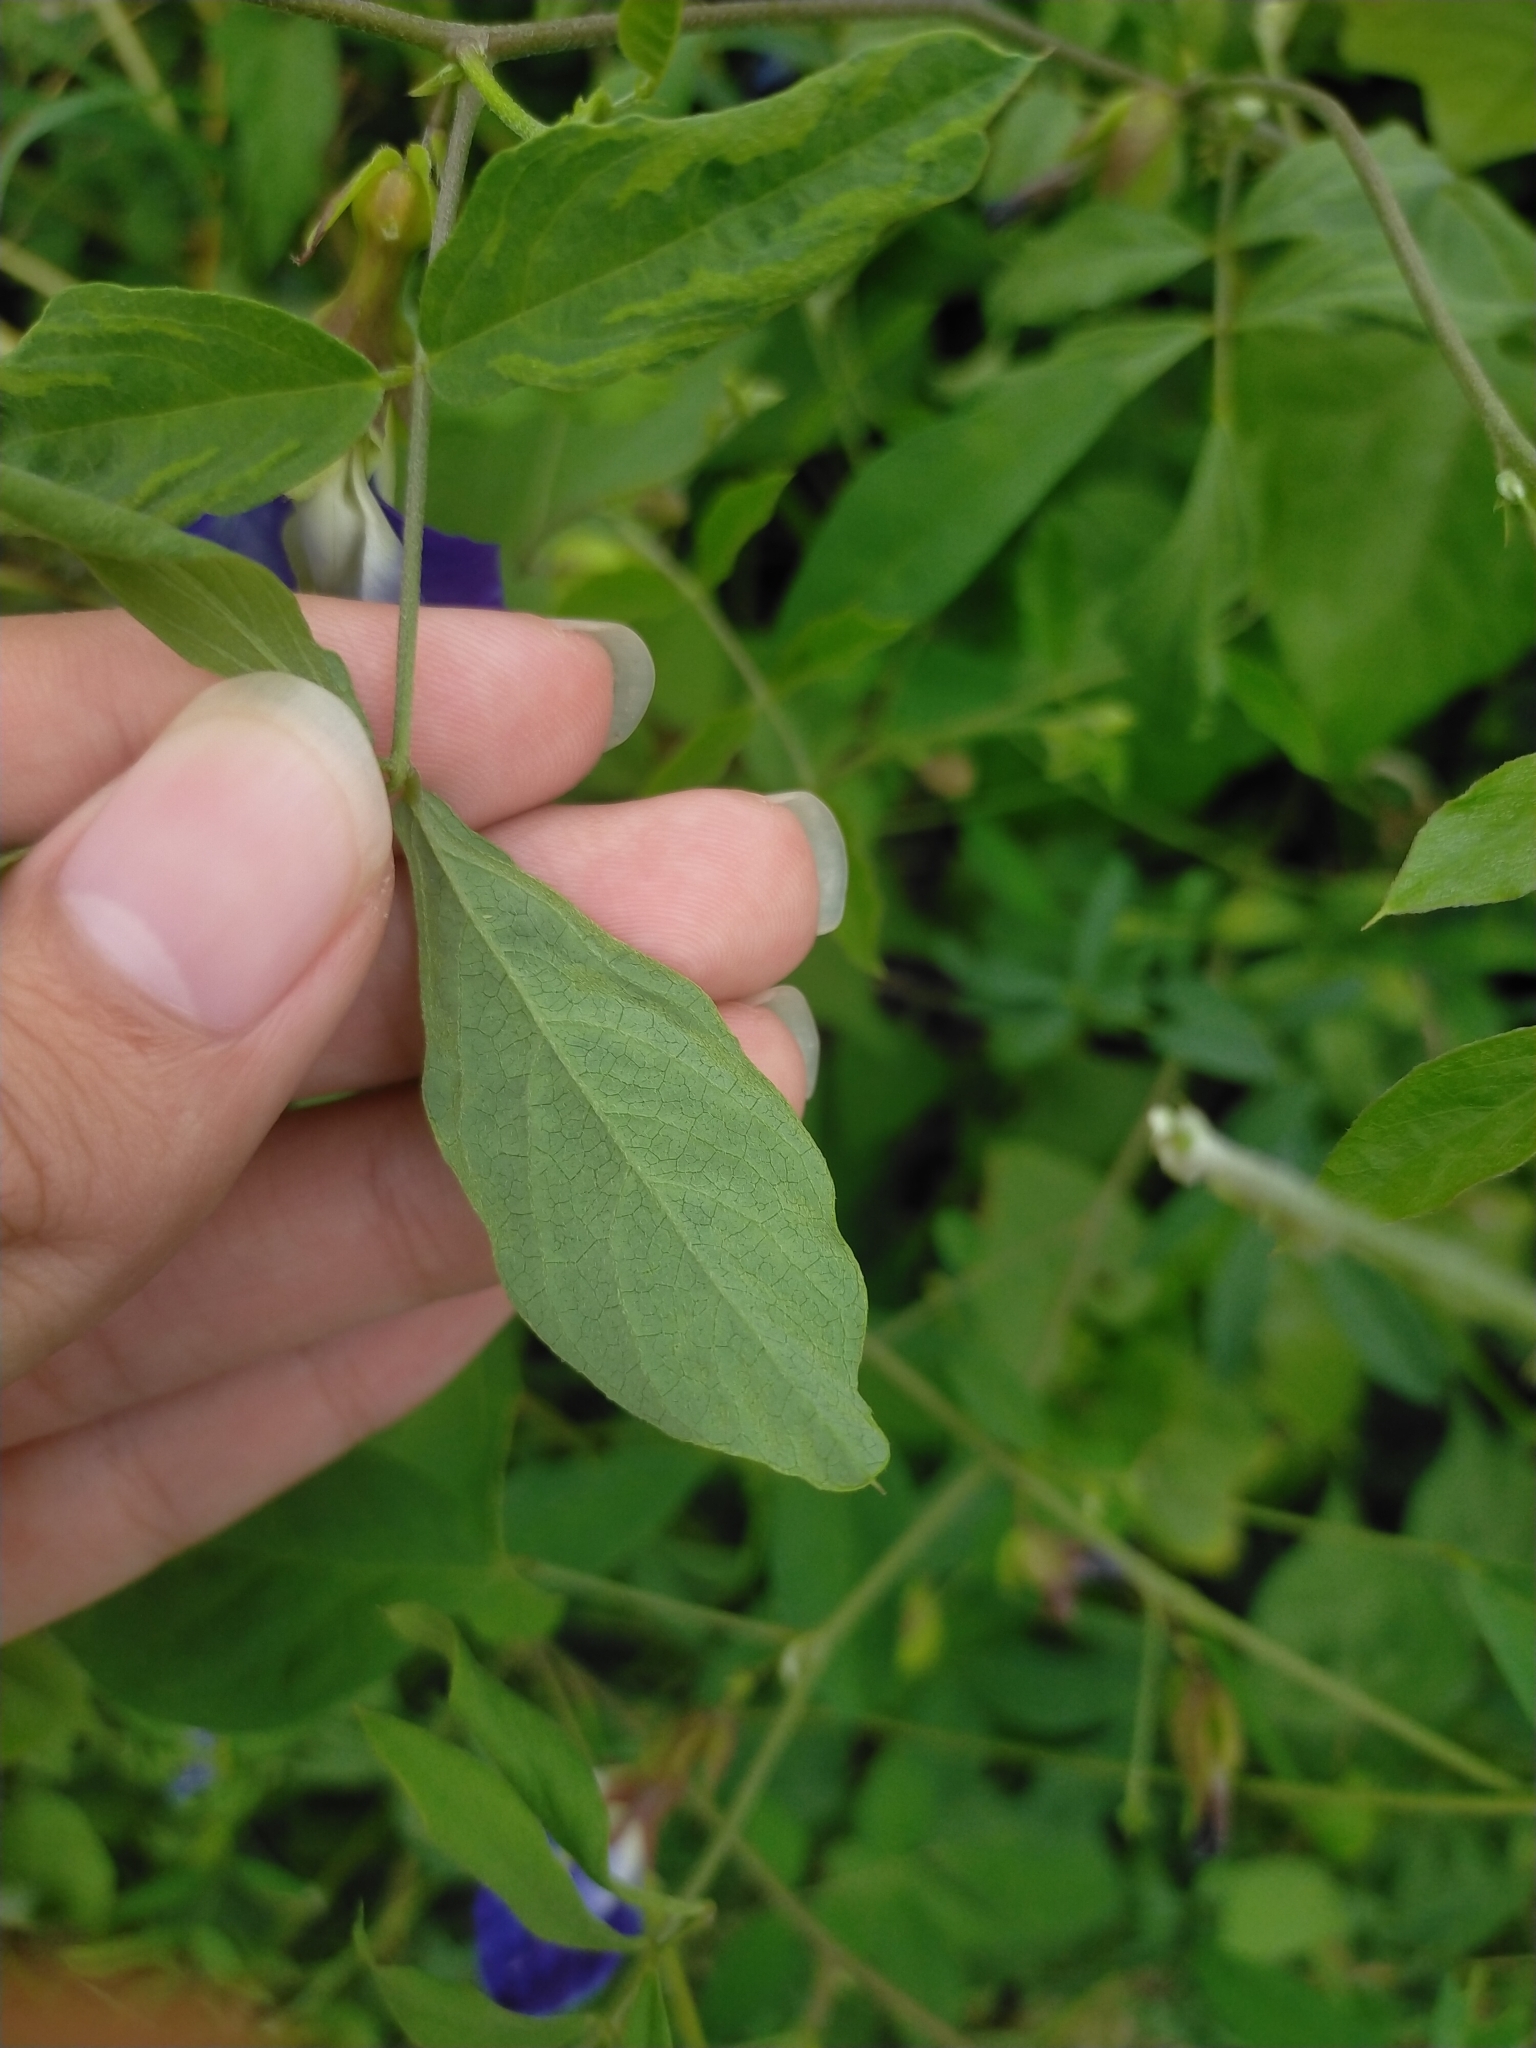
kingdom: Plantae
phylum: Tracheophyta
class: Magnoliopsida
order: Fabales
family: Fabaceae
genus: Clitoria
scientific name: Clitoria ternatea
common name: Asian pigeonwings
